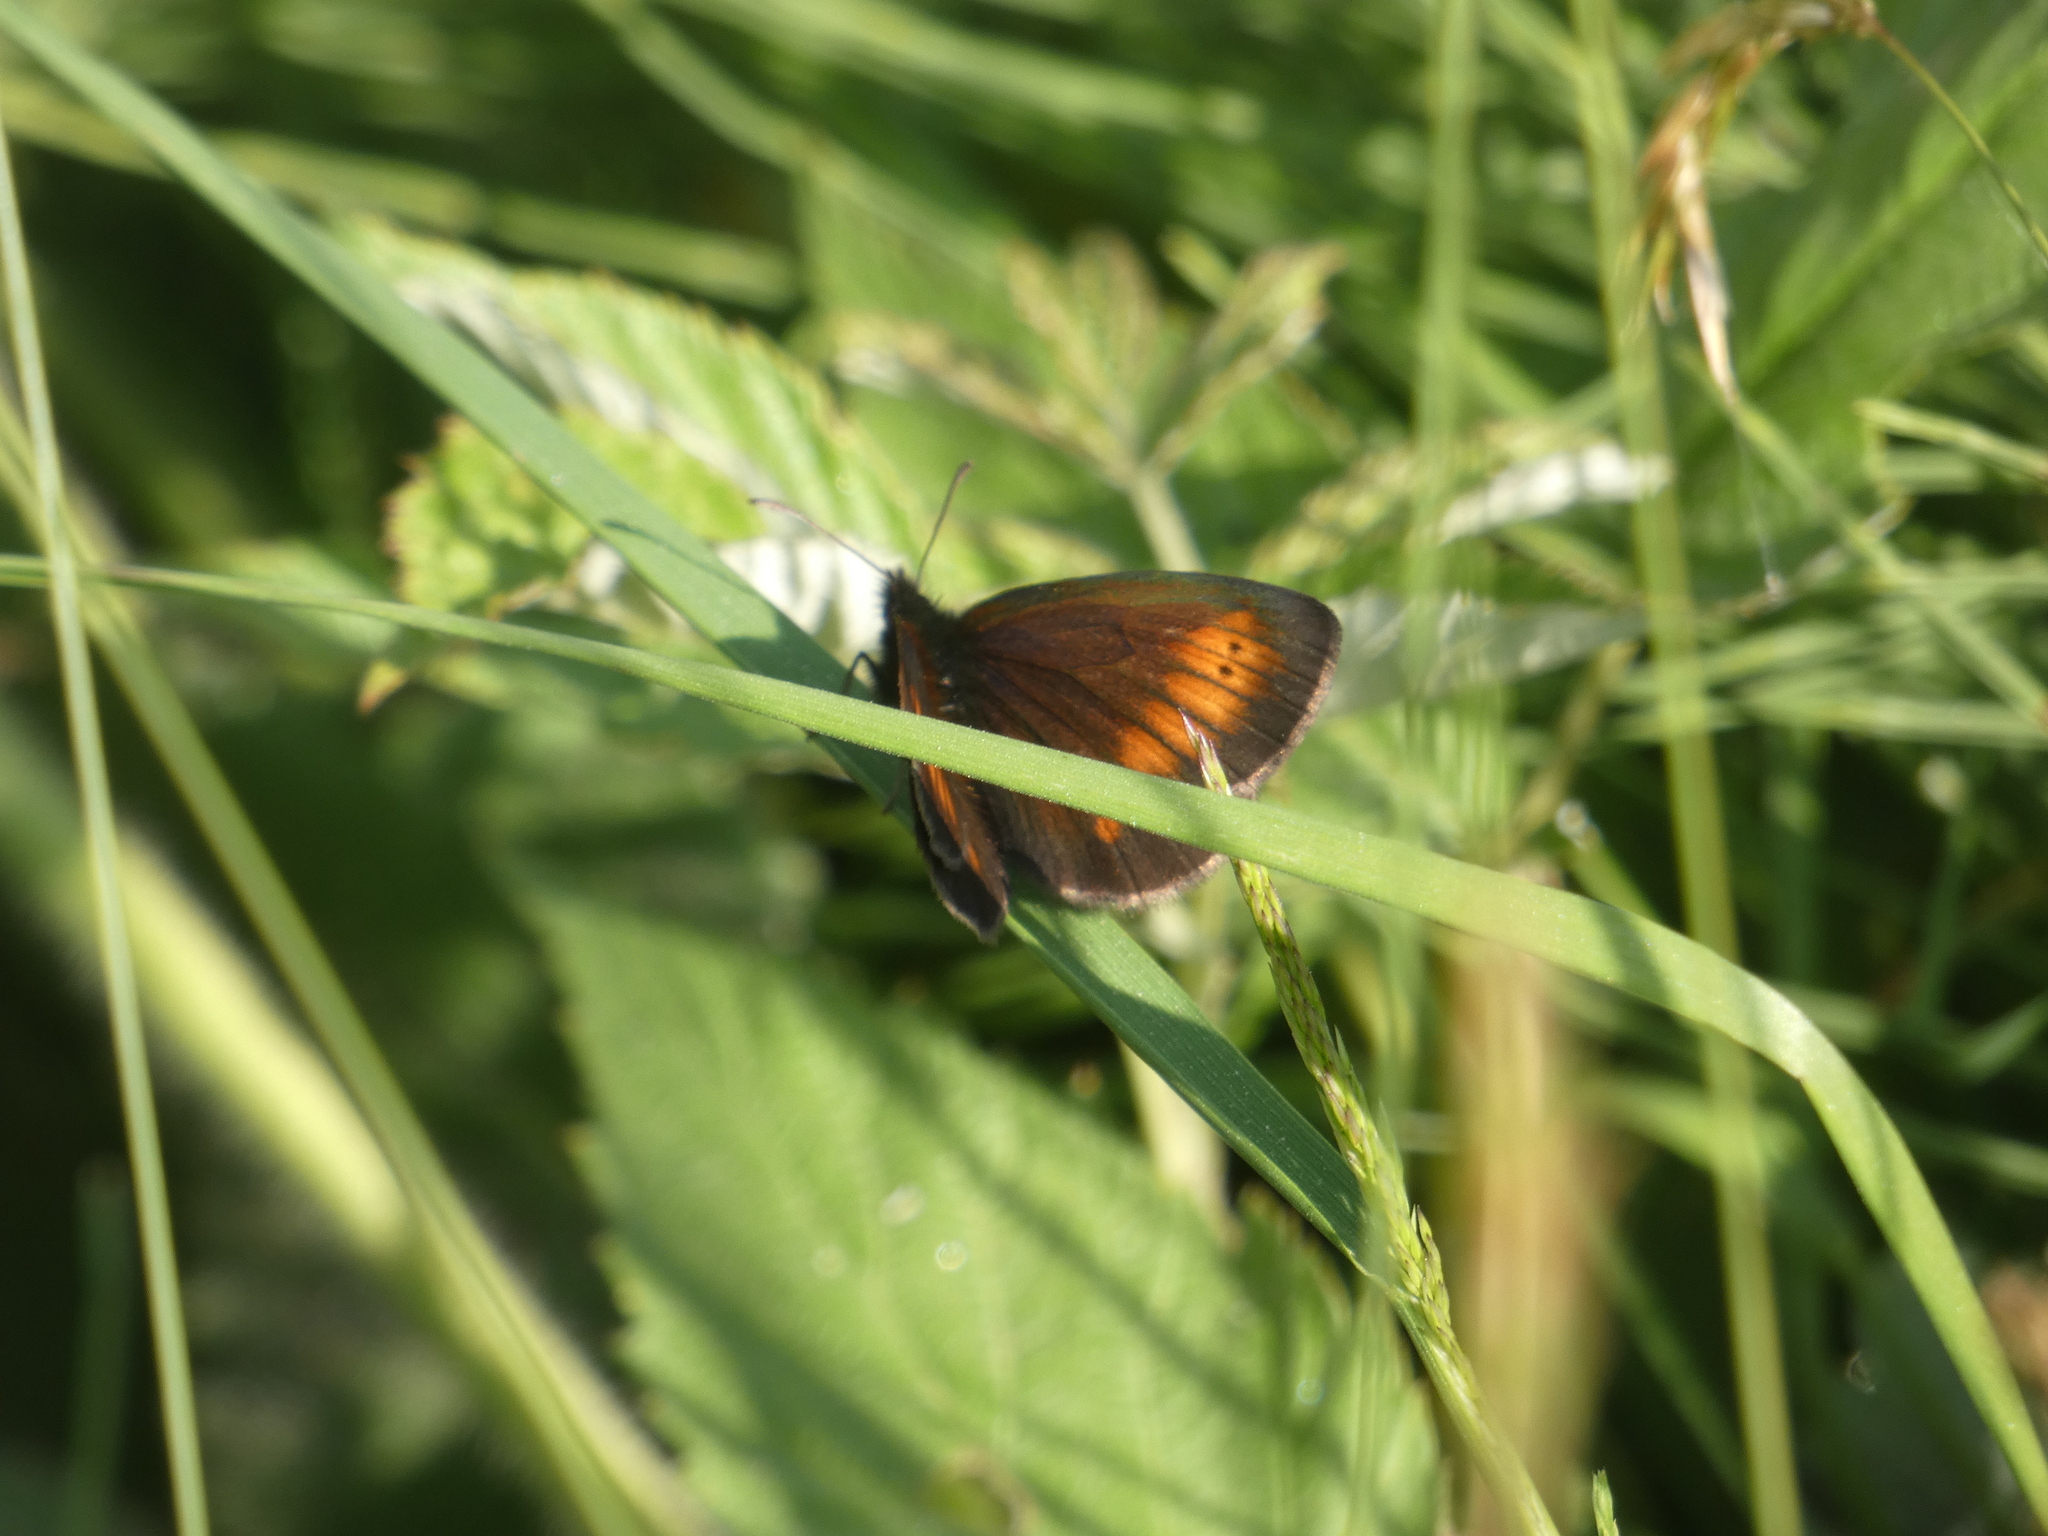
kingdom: Animalia
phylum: Arthropoda
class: Insecta
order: Lepidoptera
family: Nymphalidae
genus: Erebia
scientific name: Erebia melampus
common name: Lesser mountain ringlet
